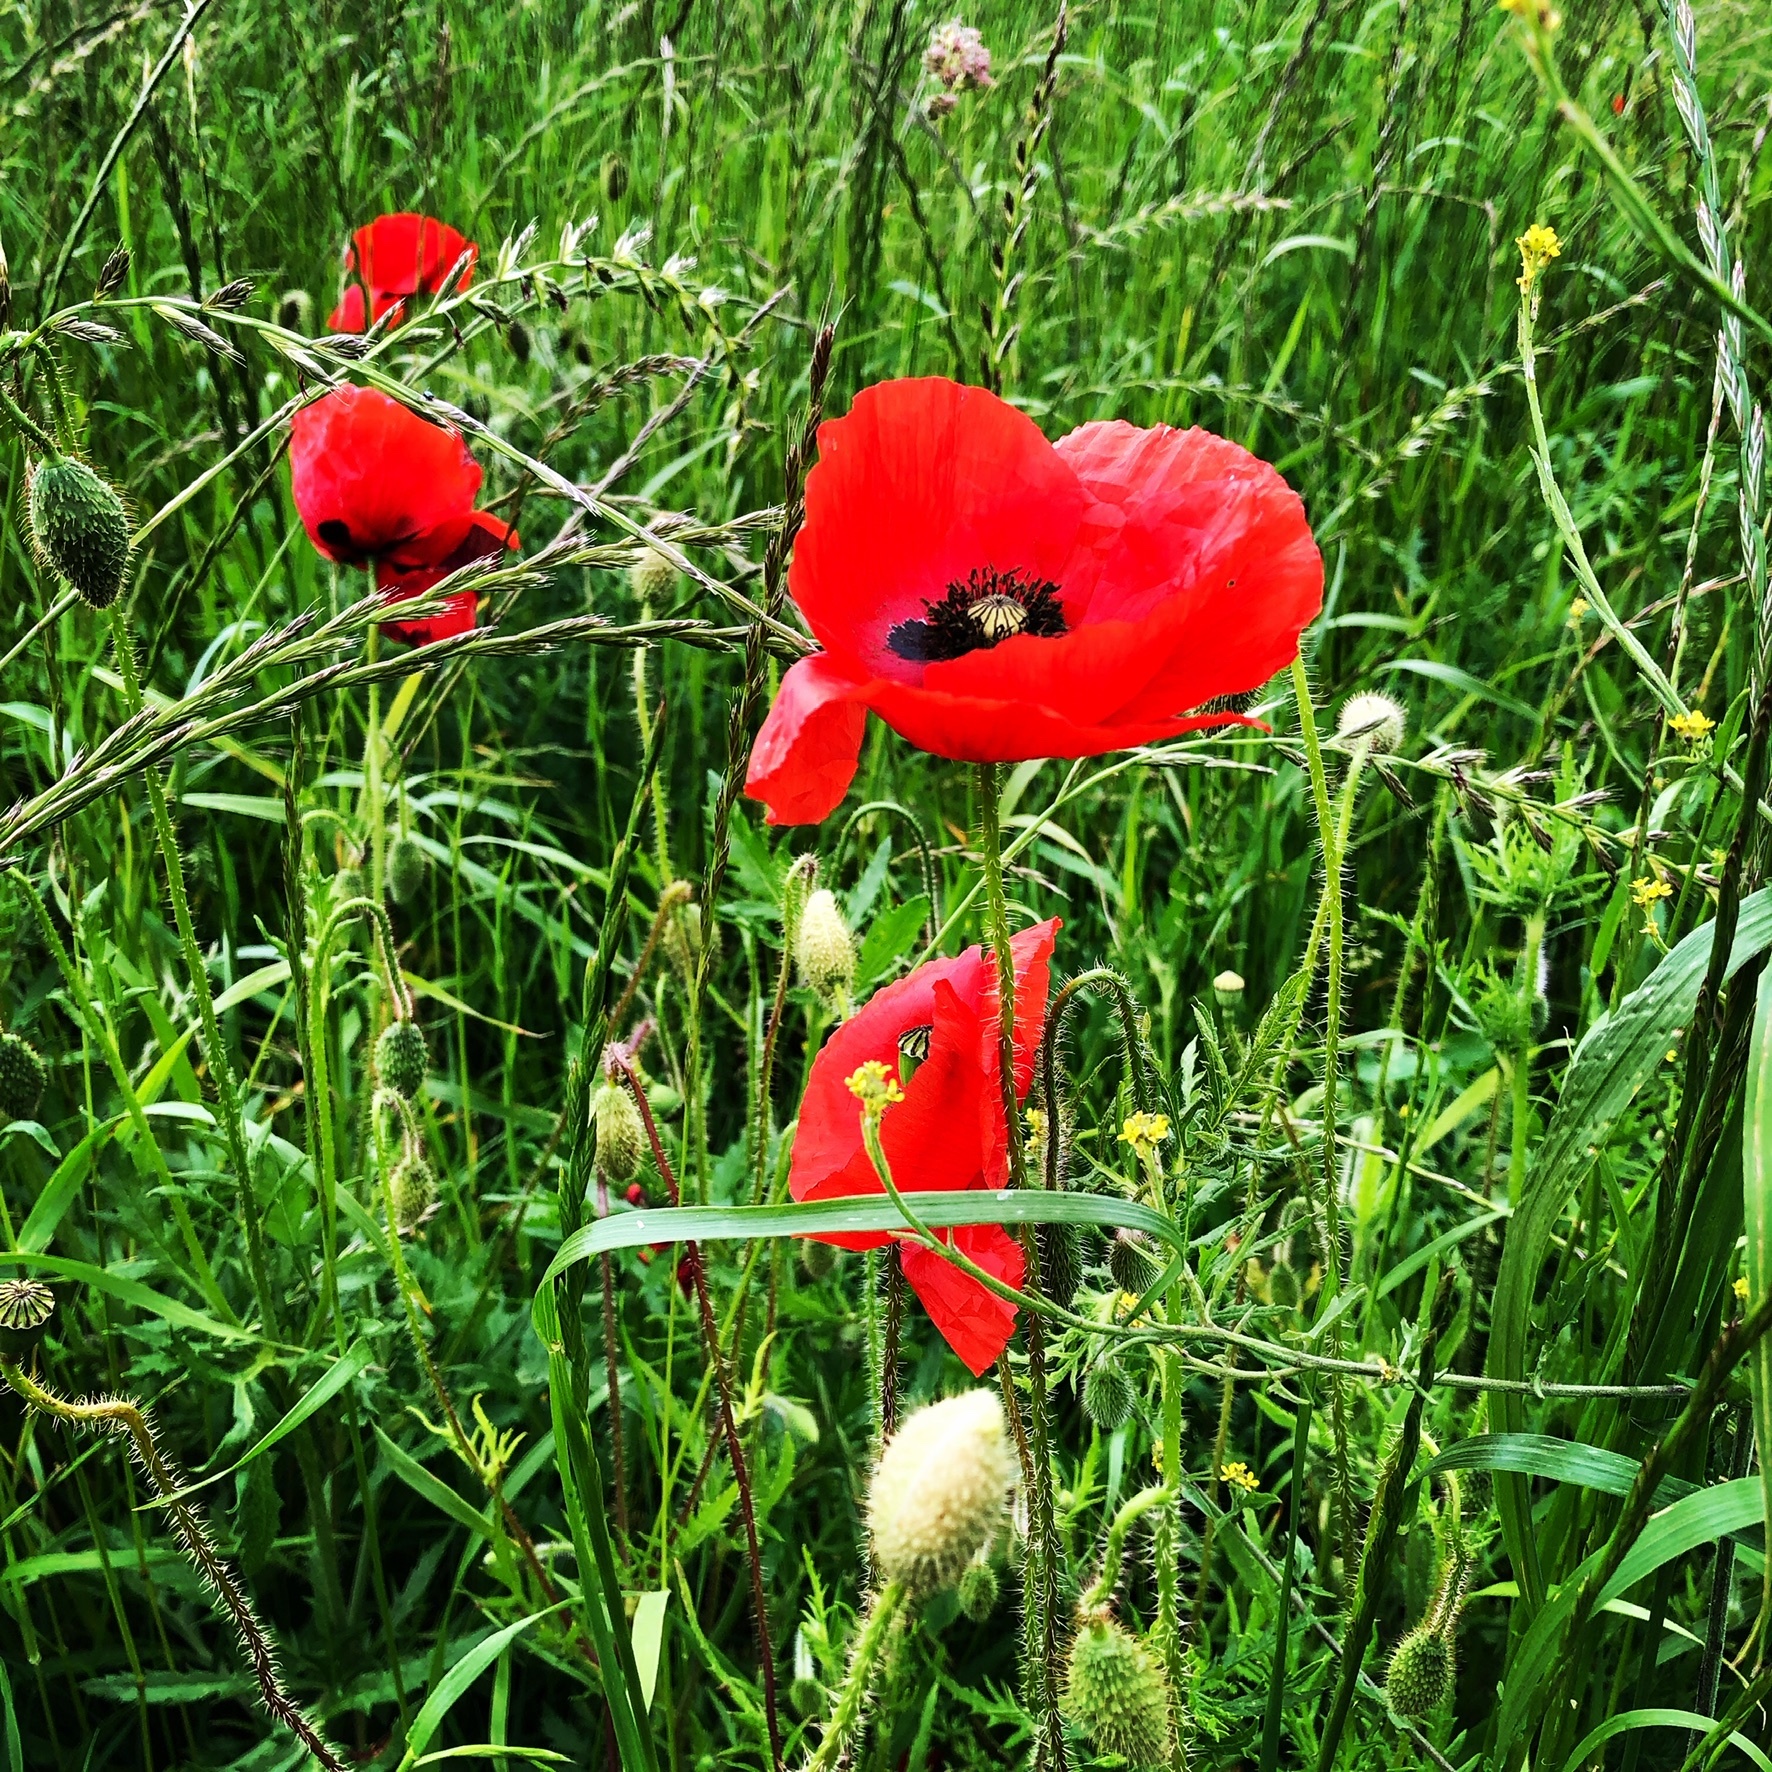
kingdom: Plantae
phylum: Tracheophyta
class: Magnoliopsida
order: Ranunculales
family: Papaveraceae
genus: Papaver
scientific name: Papaver rhoeas
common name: Corn poppy
